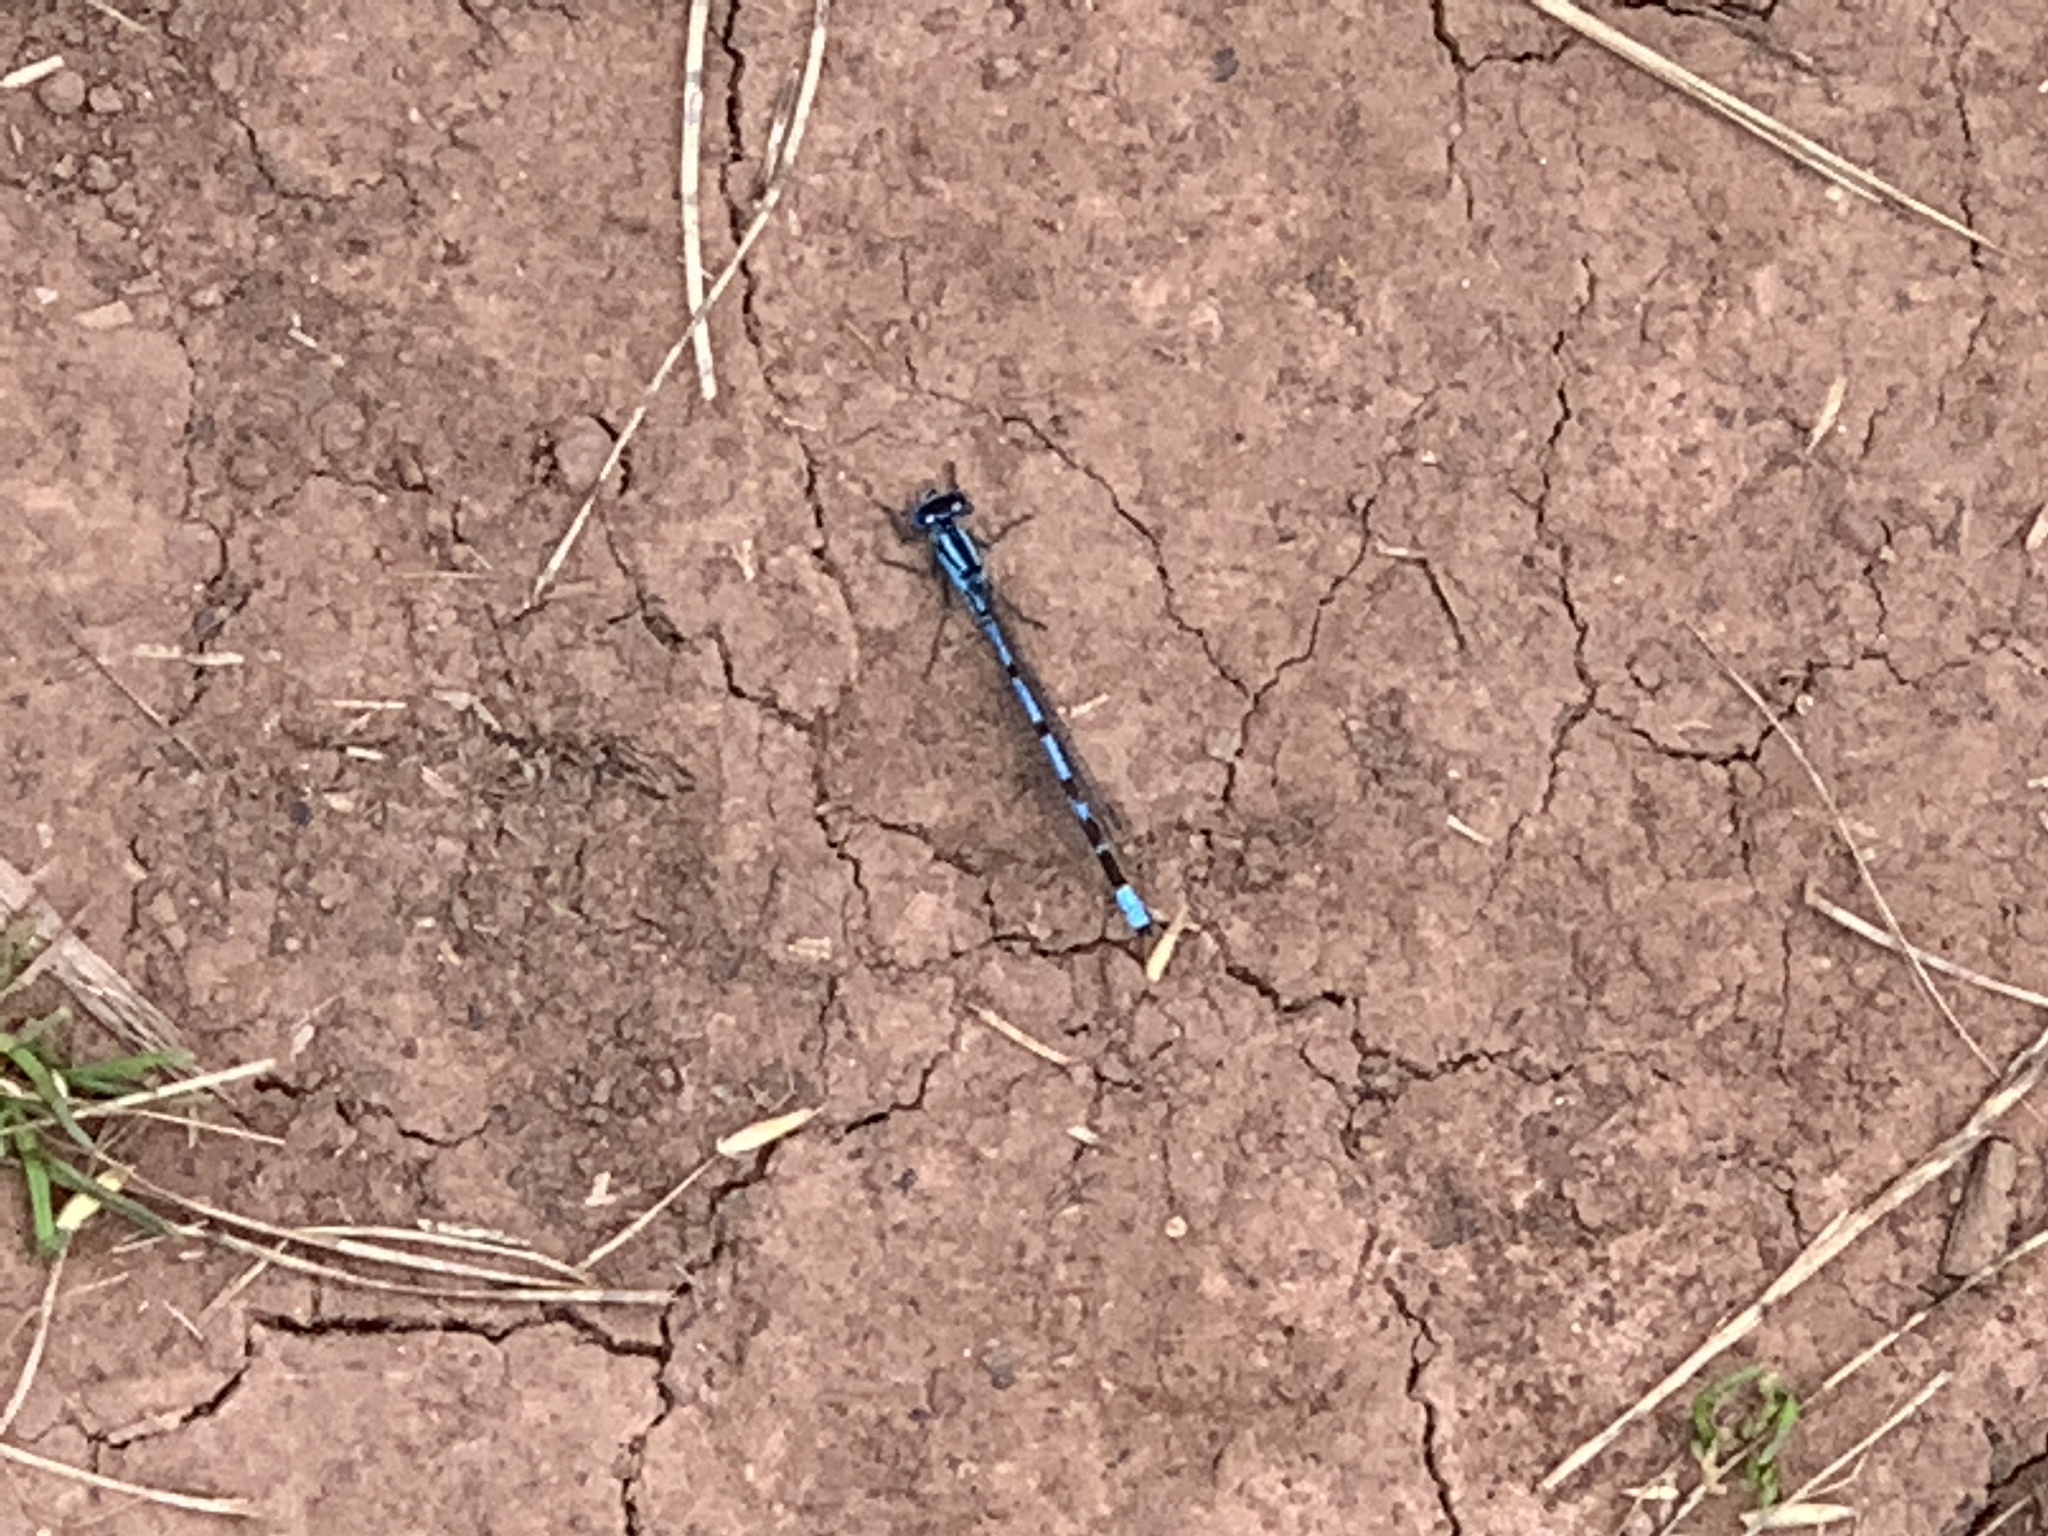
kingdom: Animalia
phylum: Arthropoda
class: Insecta
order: Odonata
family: Coenagrionidae
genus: Enallagma
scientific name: Enallagma cyathigerum
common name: Common blue damselfly
